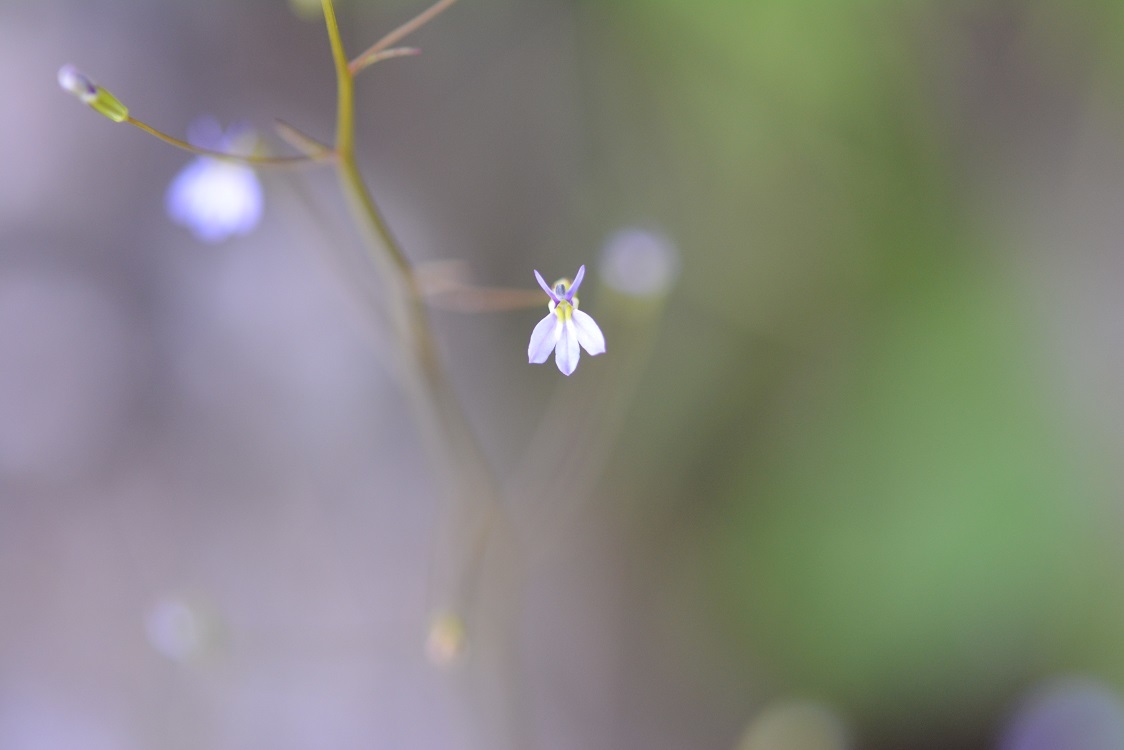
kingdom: Plantae
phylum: Tracheophyta
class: Magnoliopsida
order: Asterales
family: Campanulaceae
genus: Lobelia
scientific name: Lobelia longicaulis
